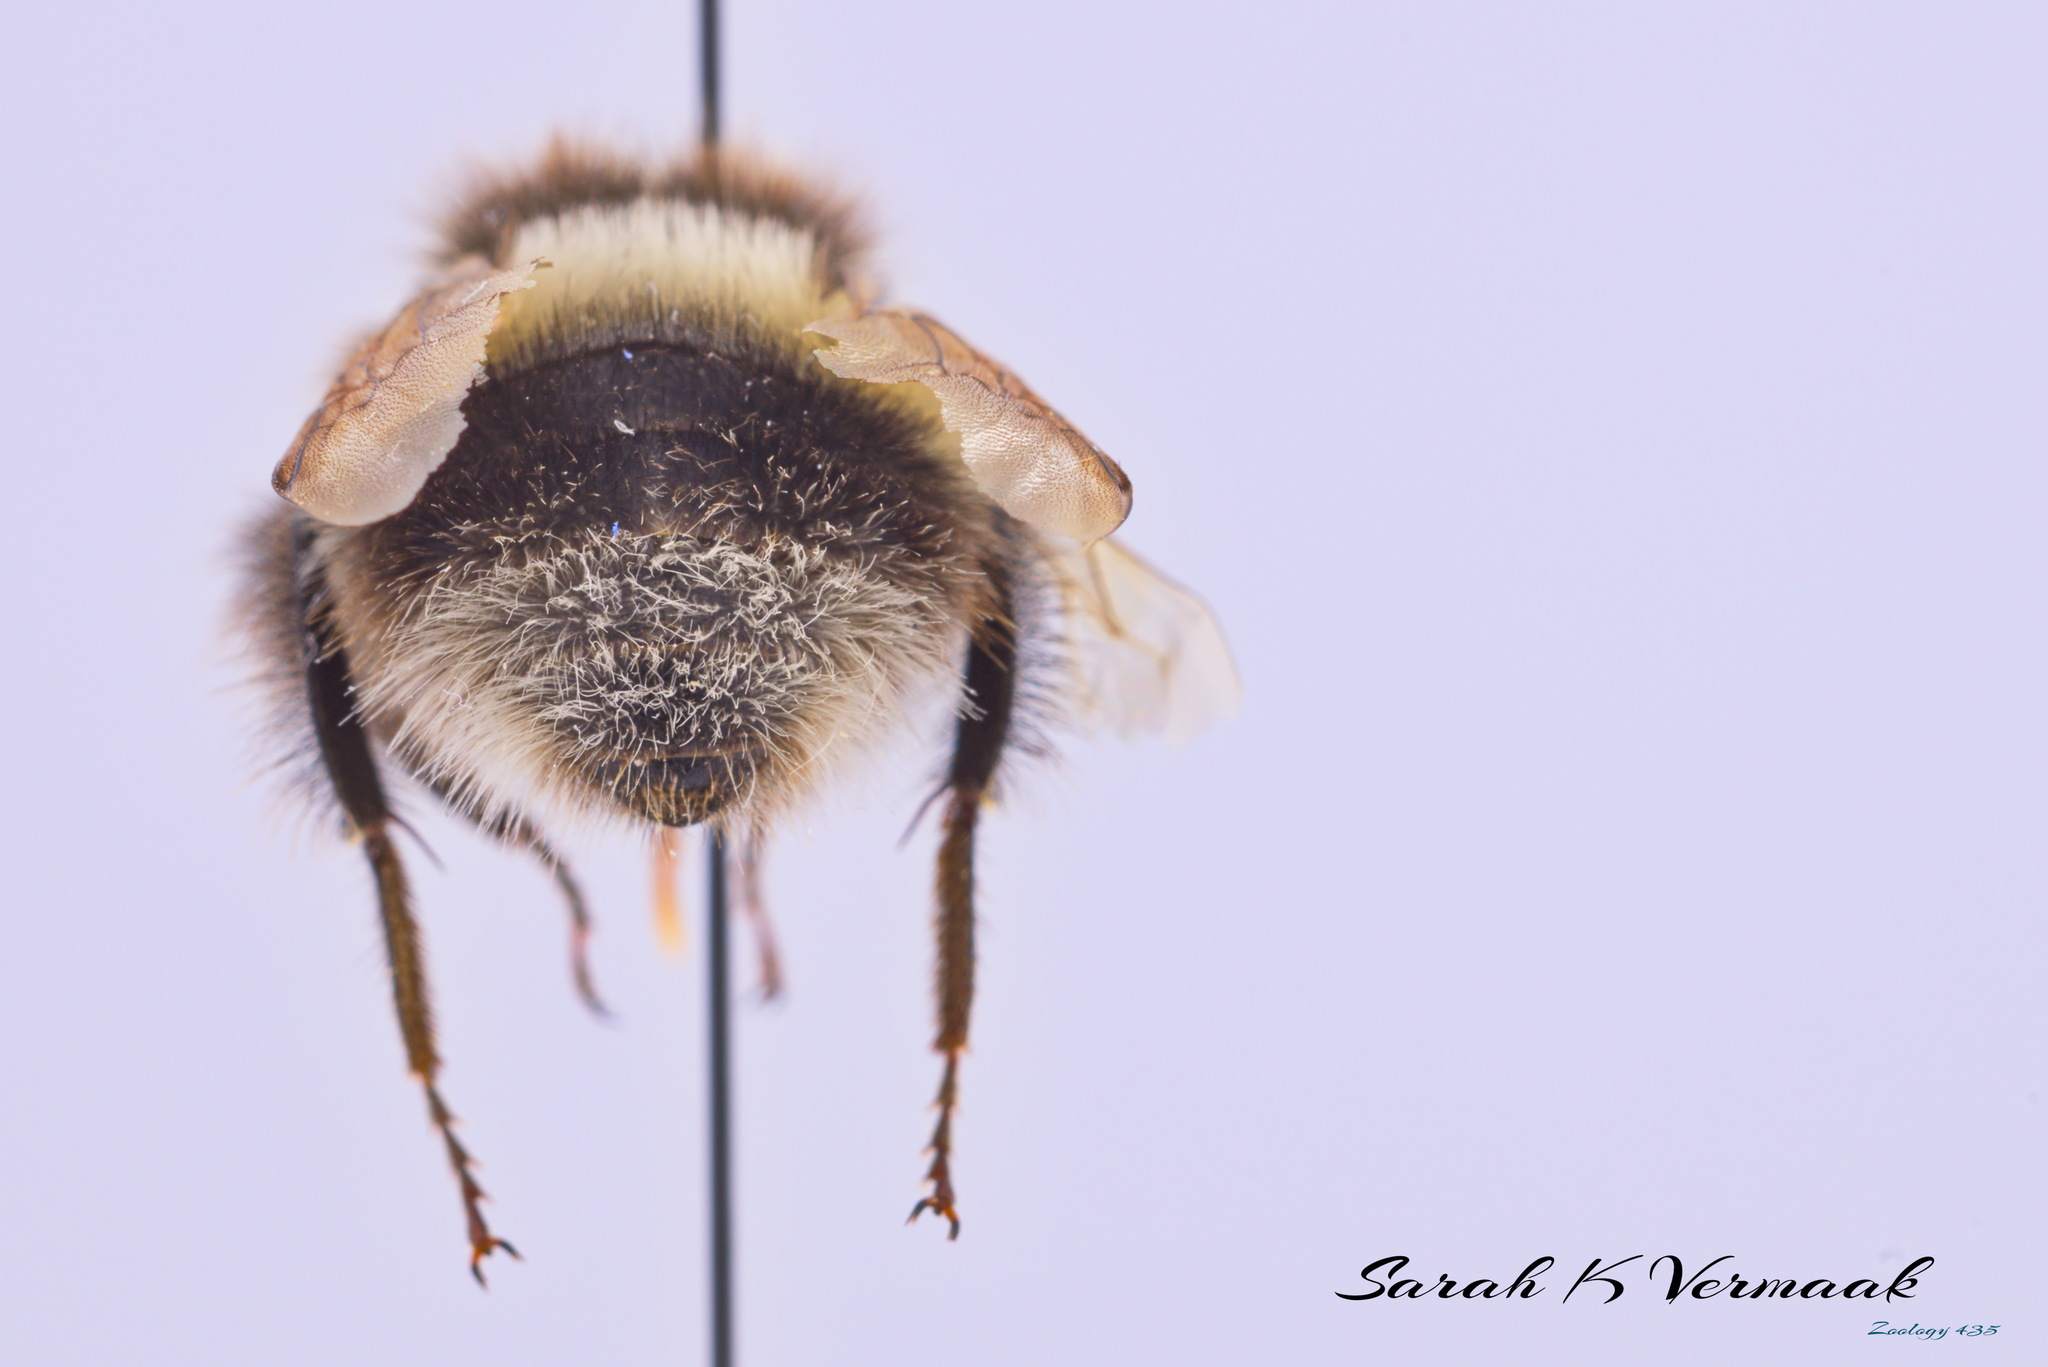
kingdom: Animalia
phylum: Arthropoda
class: Insecta
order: Hymenoptera
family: Apidae
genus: Bombus
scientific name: Bombus cryptarum
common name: Cryptic bumblebee
